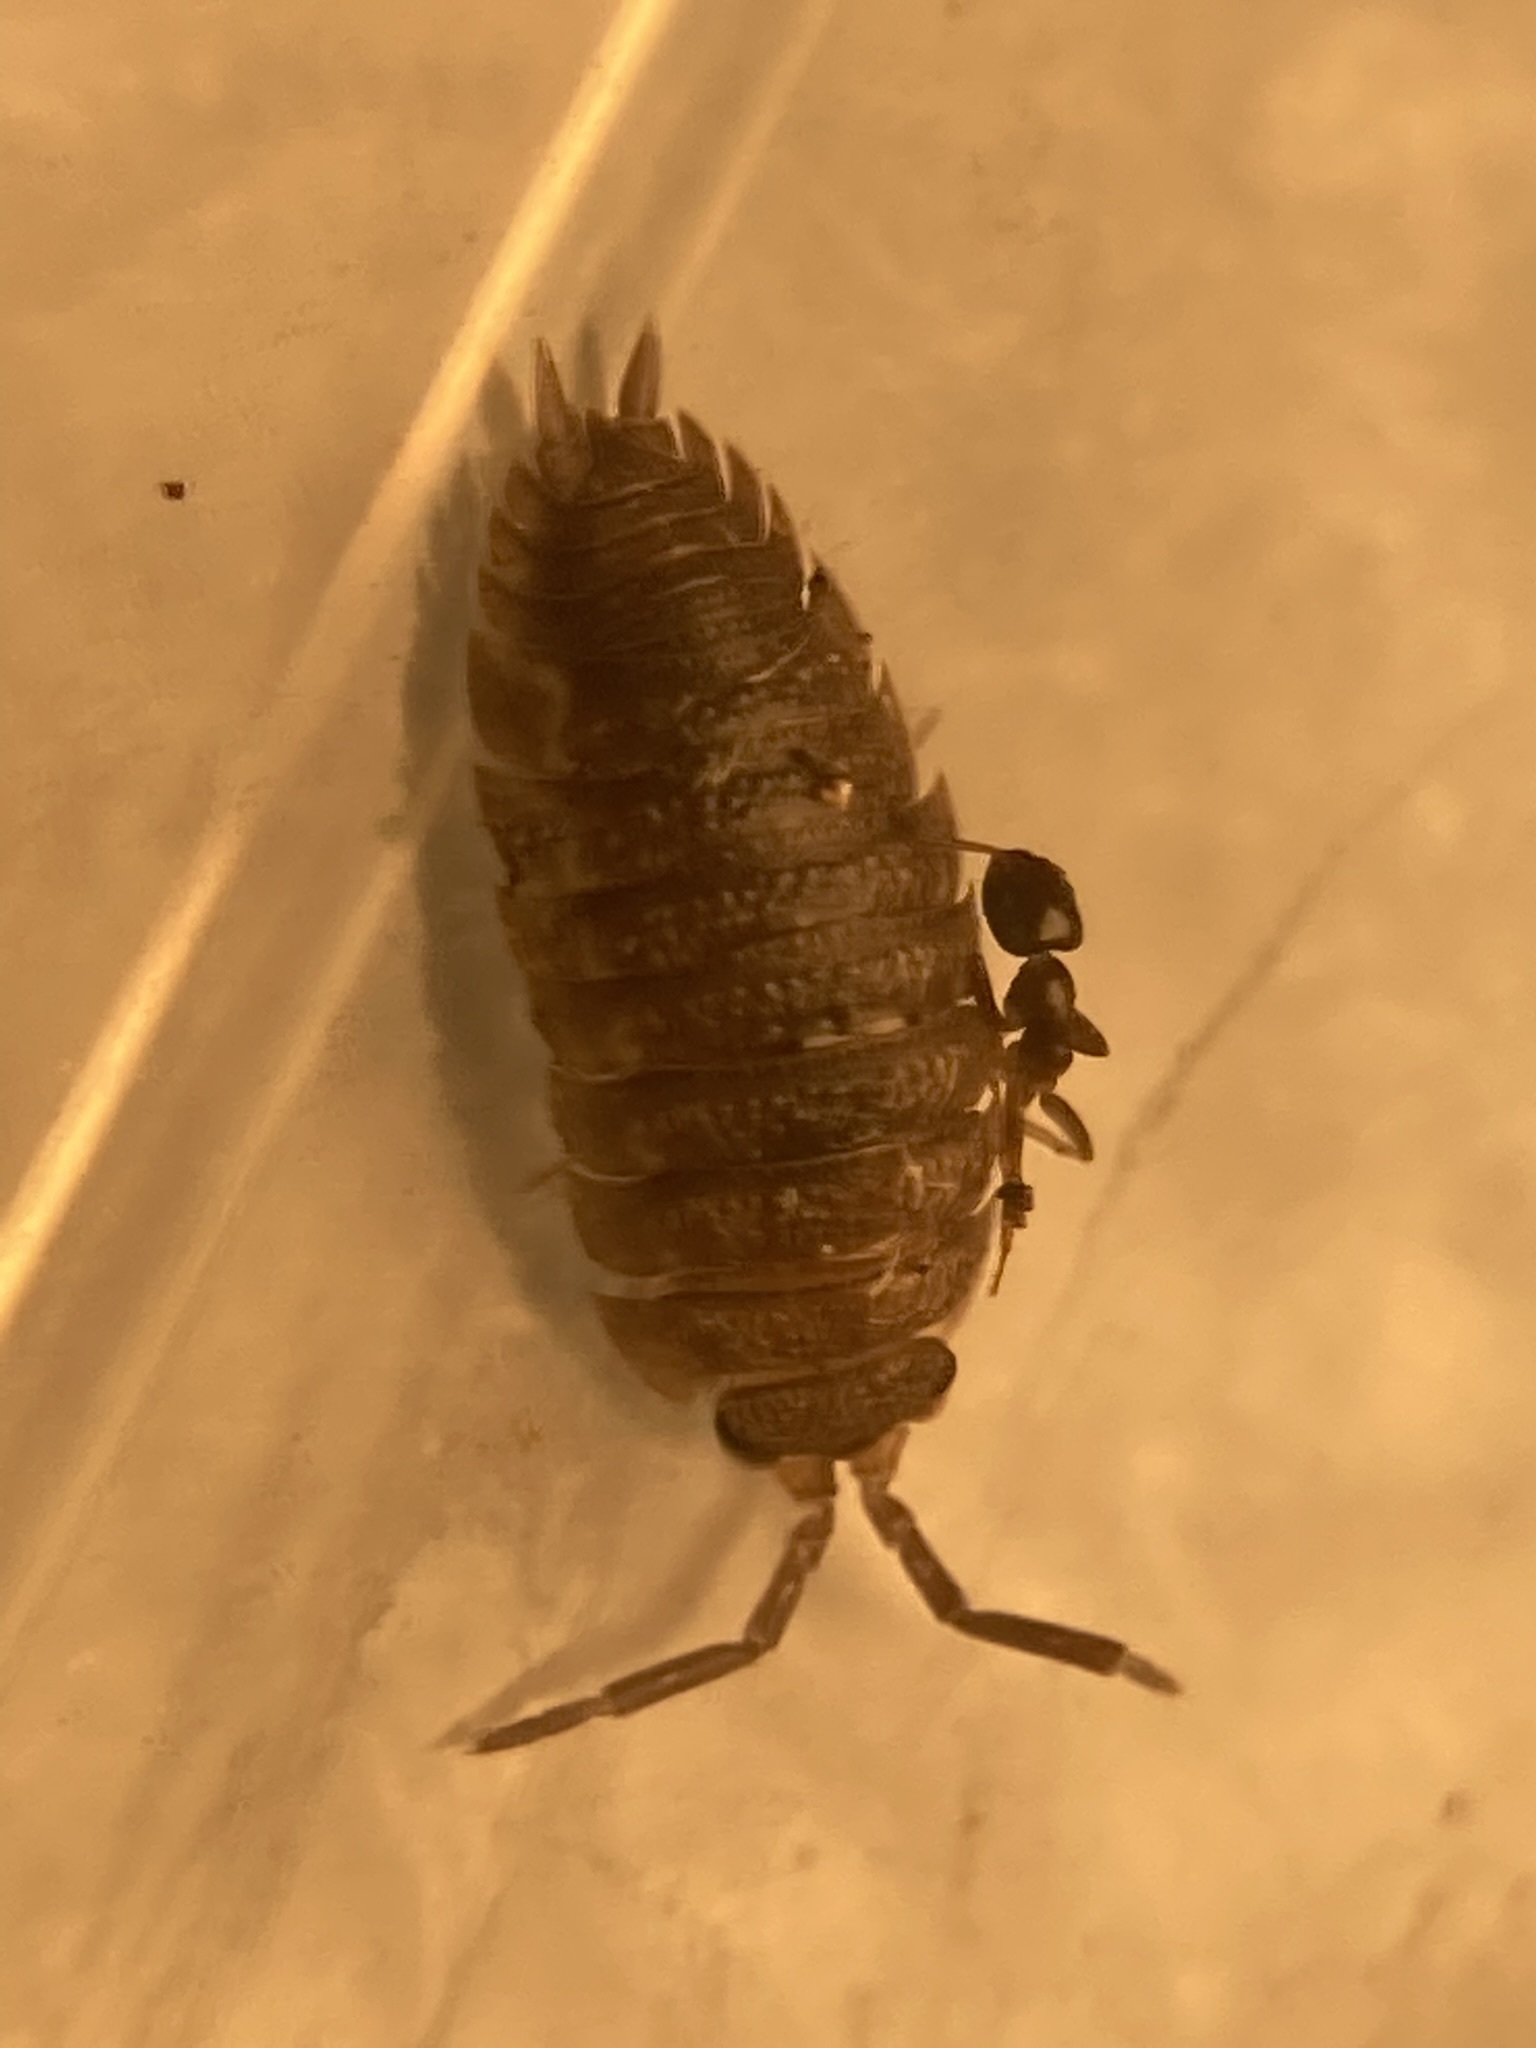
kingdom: Animalia
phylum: Arthropoda
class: Malacostraca
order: Isopoda
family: Porcellionidae
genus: Porcellio
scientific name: Porcellio scaber
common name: Common rough woodlouse
